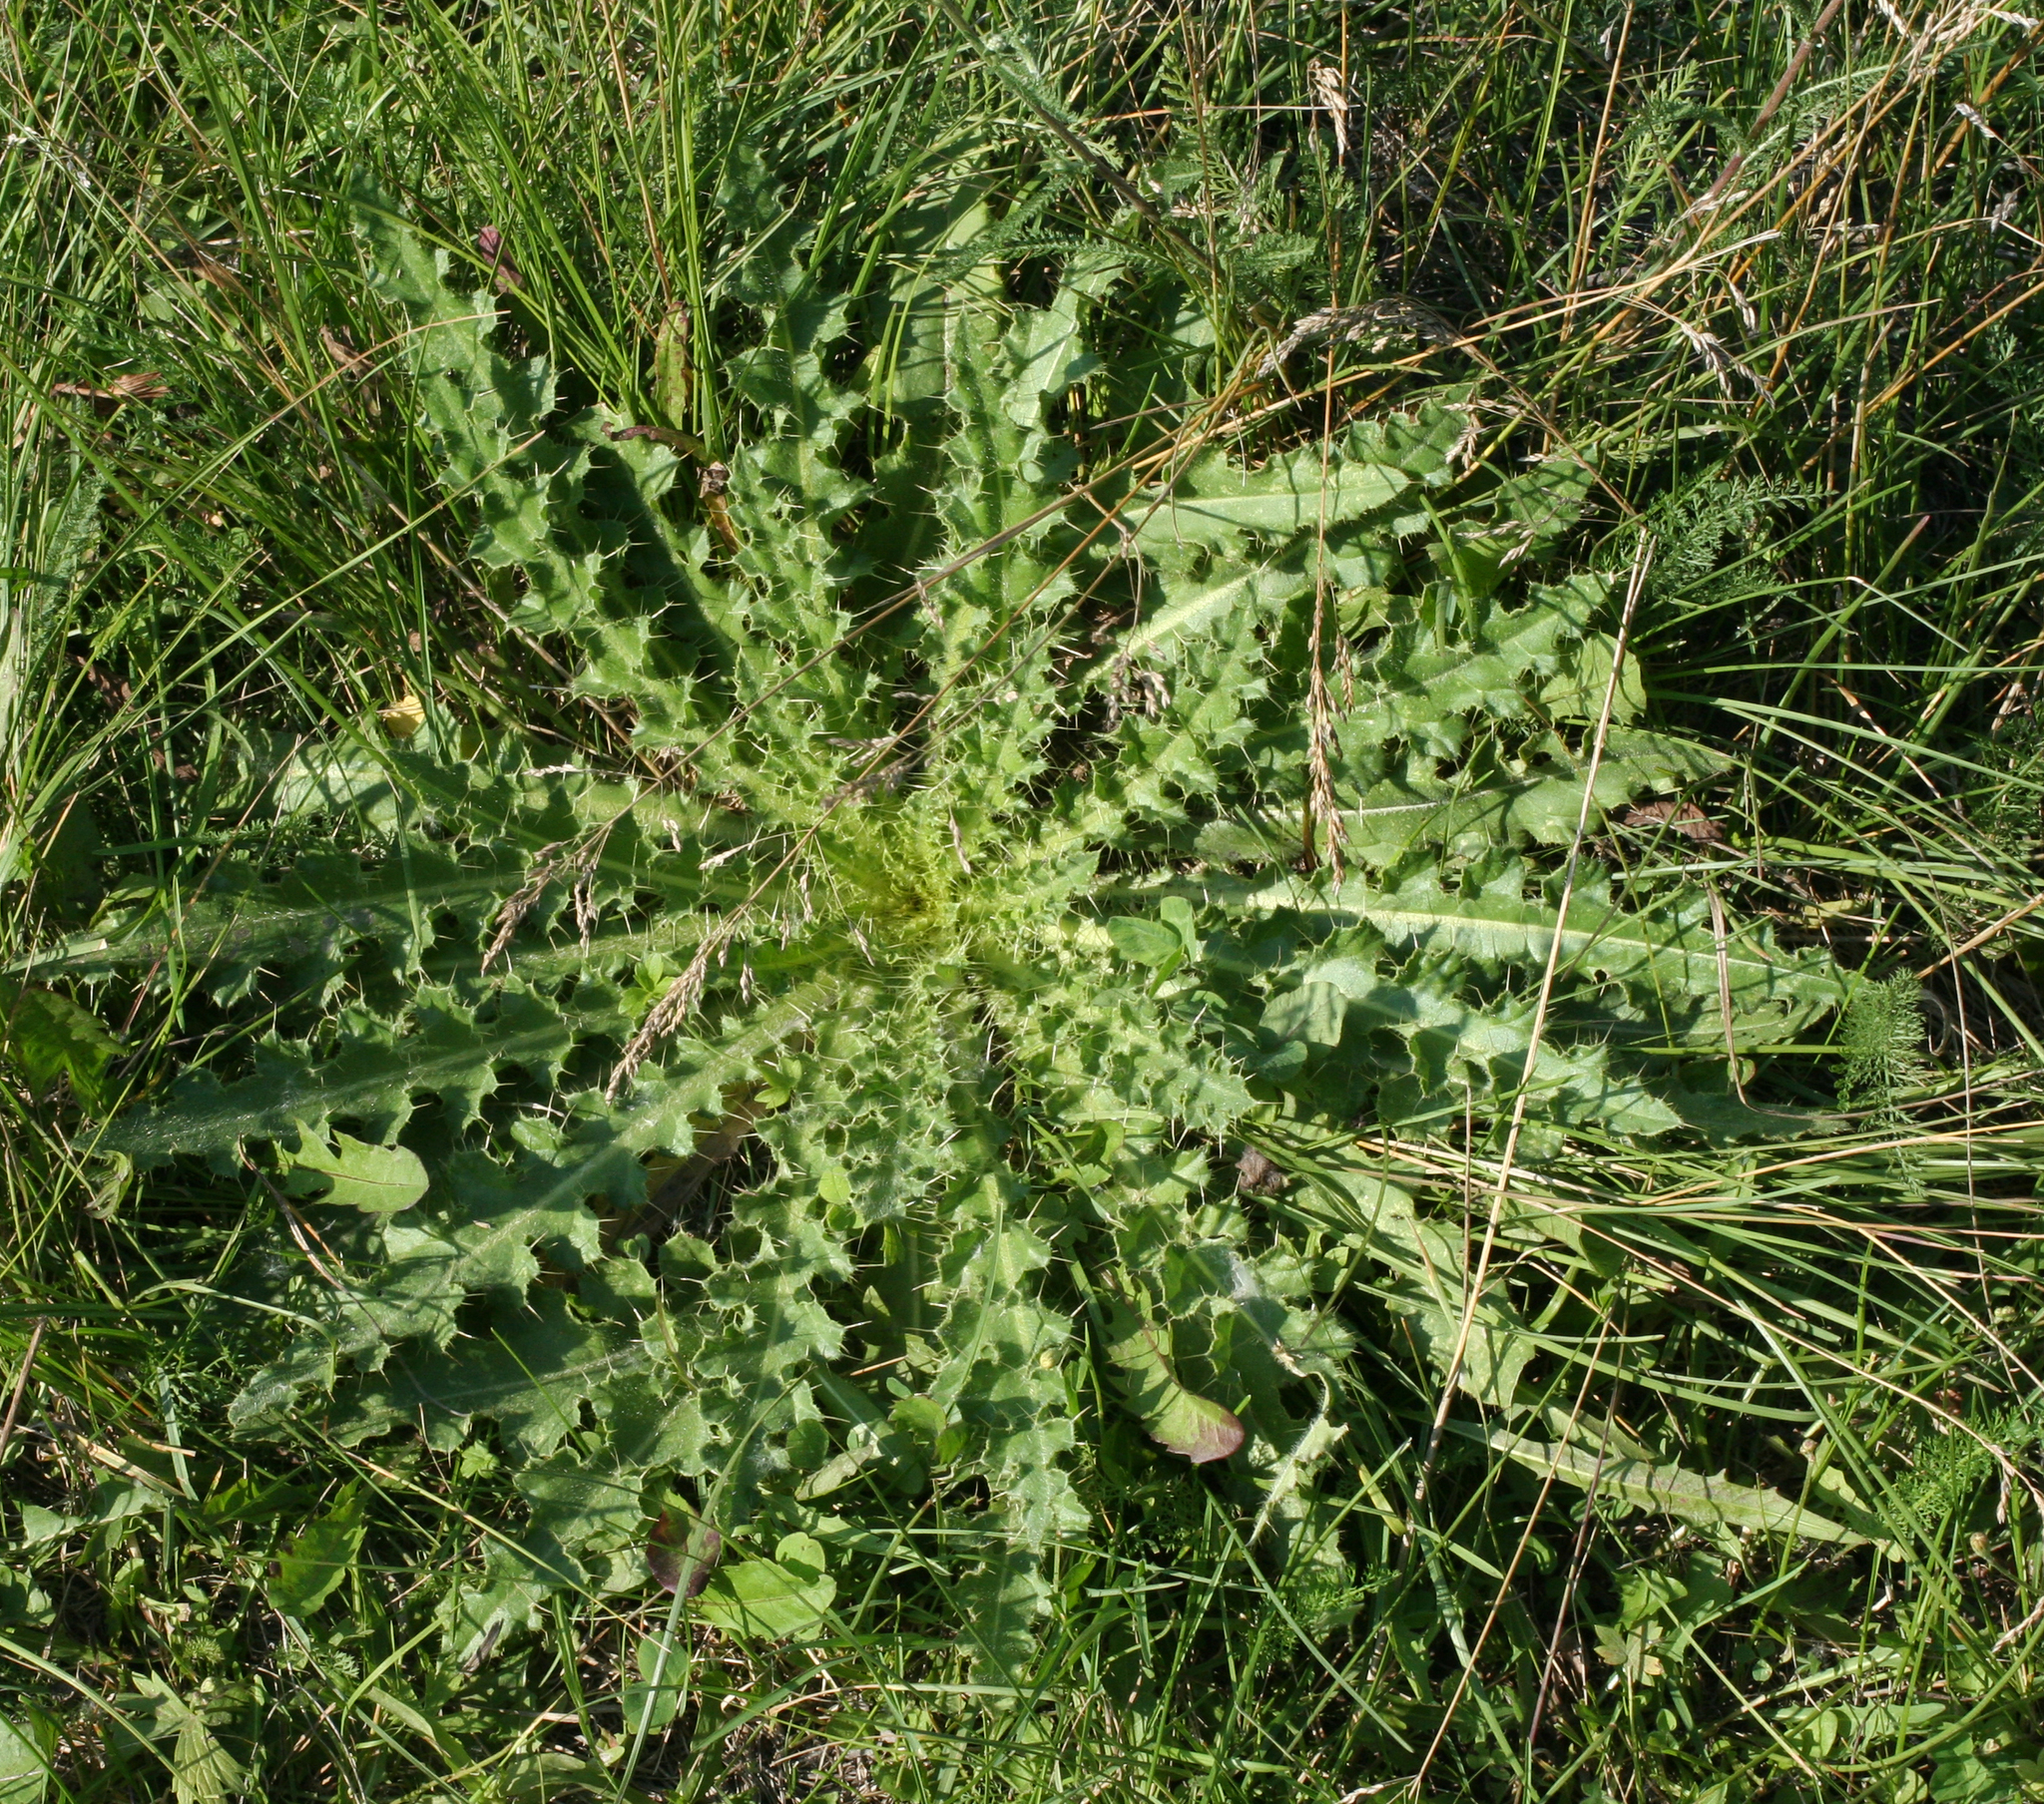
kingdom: Plantae
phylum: Tracheophyta
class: Magnoliopsida
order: Asterales
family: Asteraceae
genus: Cirsium
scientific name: Cirsium esculentum
